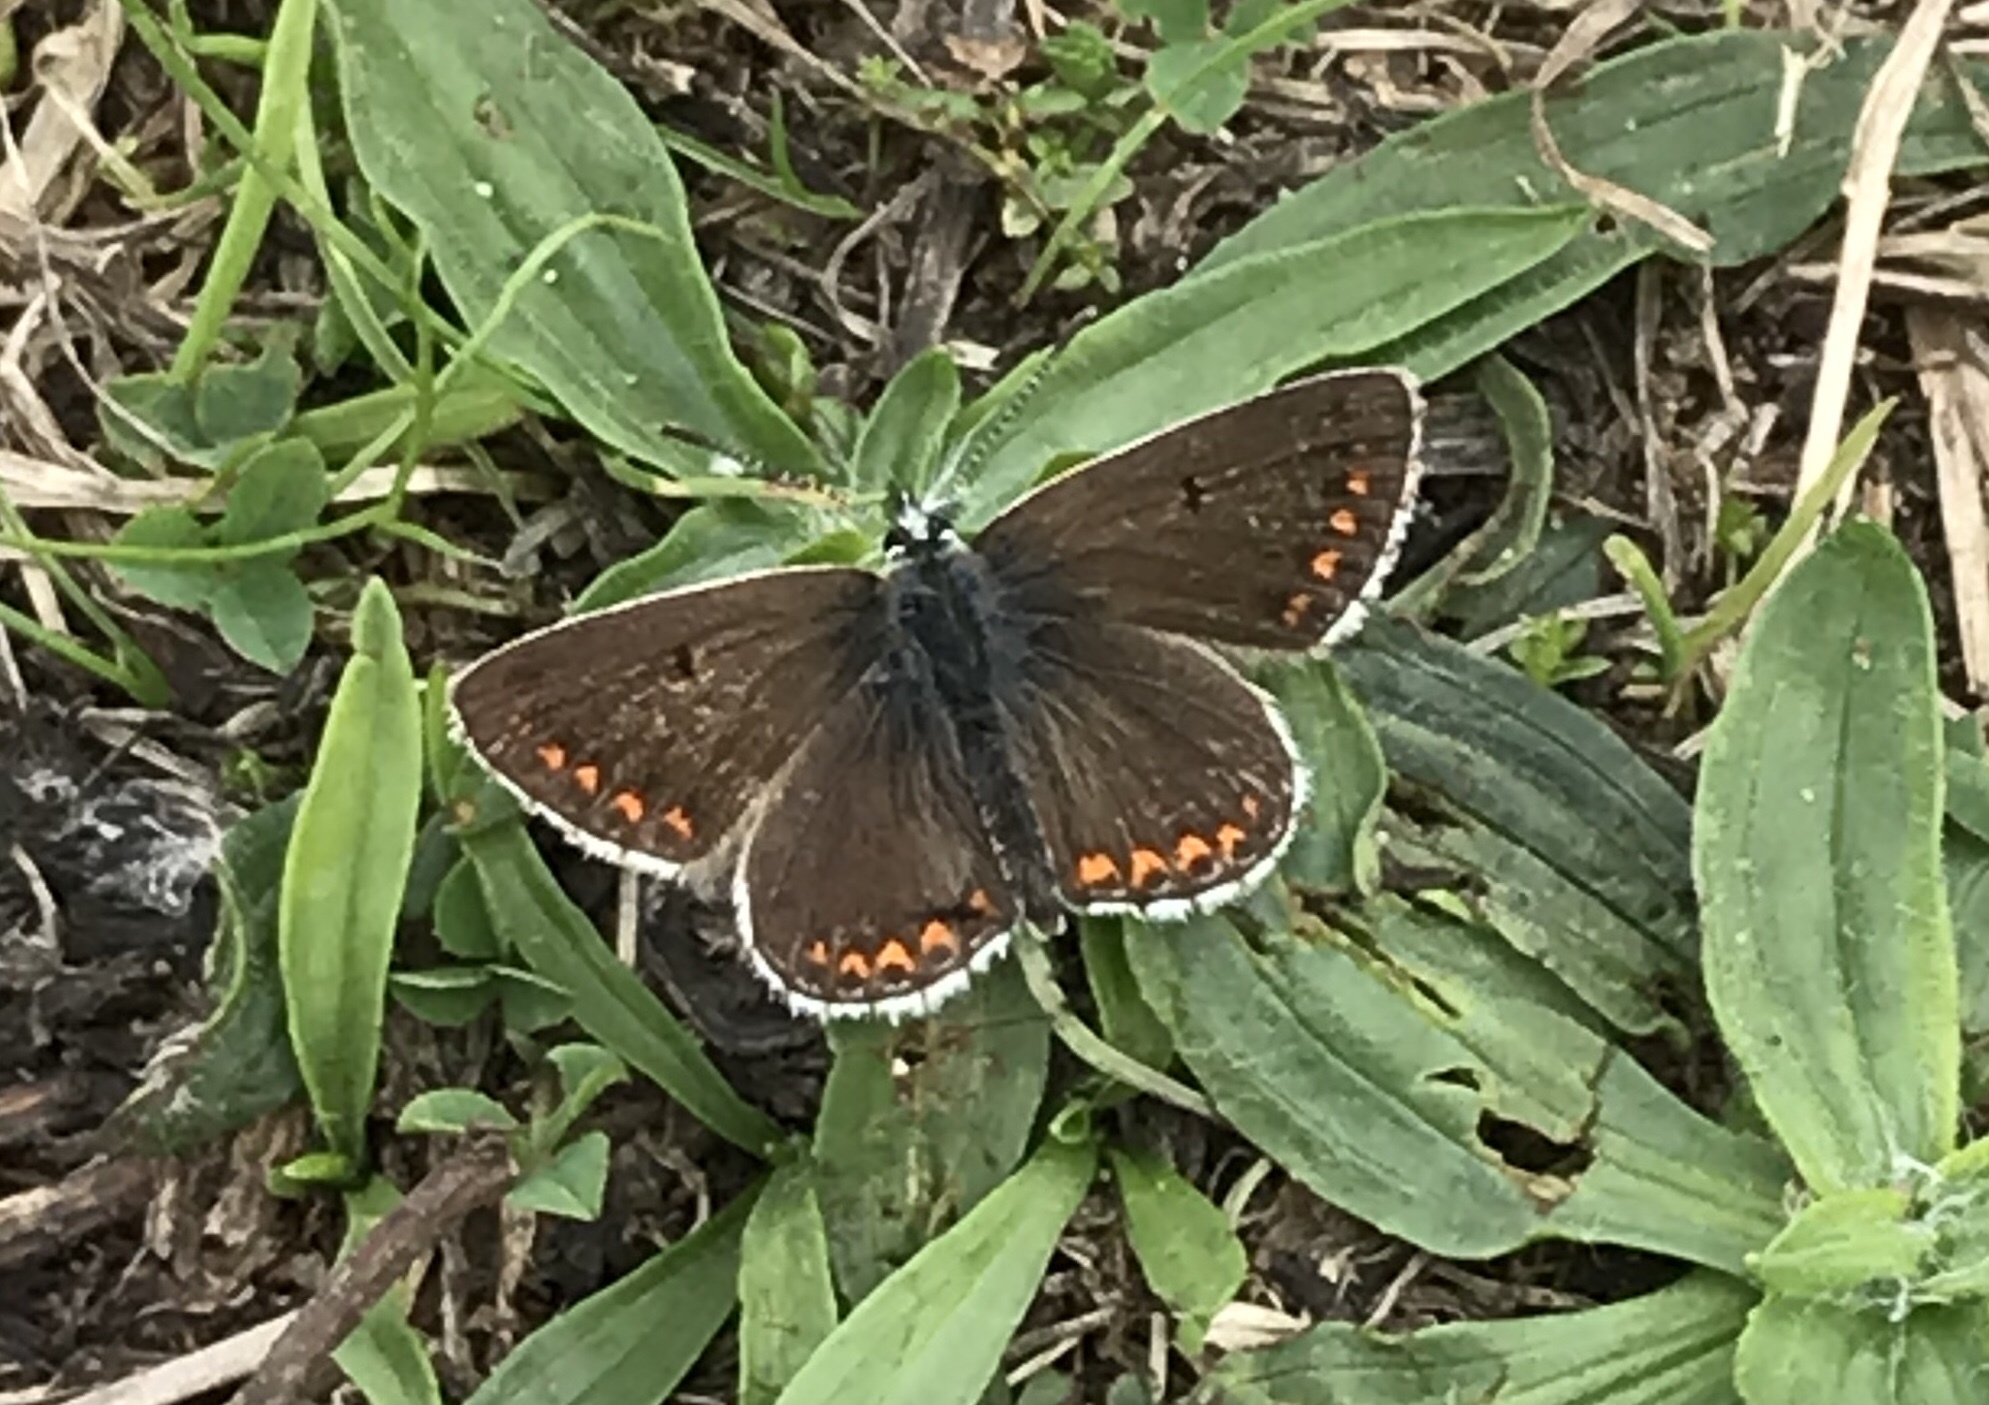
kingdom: Animalia
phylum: Arthropoda
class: Insecta
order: Lepidoptera
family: Lycaenidae
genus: Aricia
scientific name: Aricia agestis
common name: Brown argus
